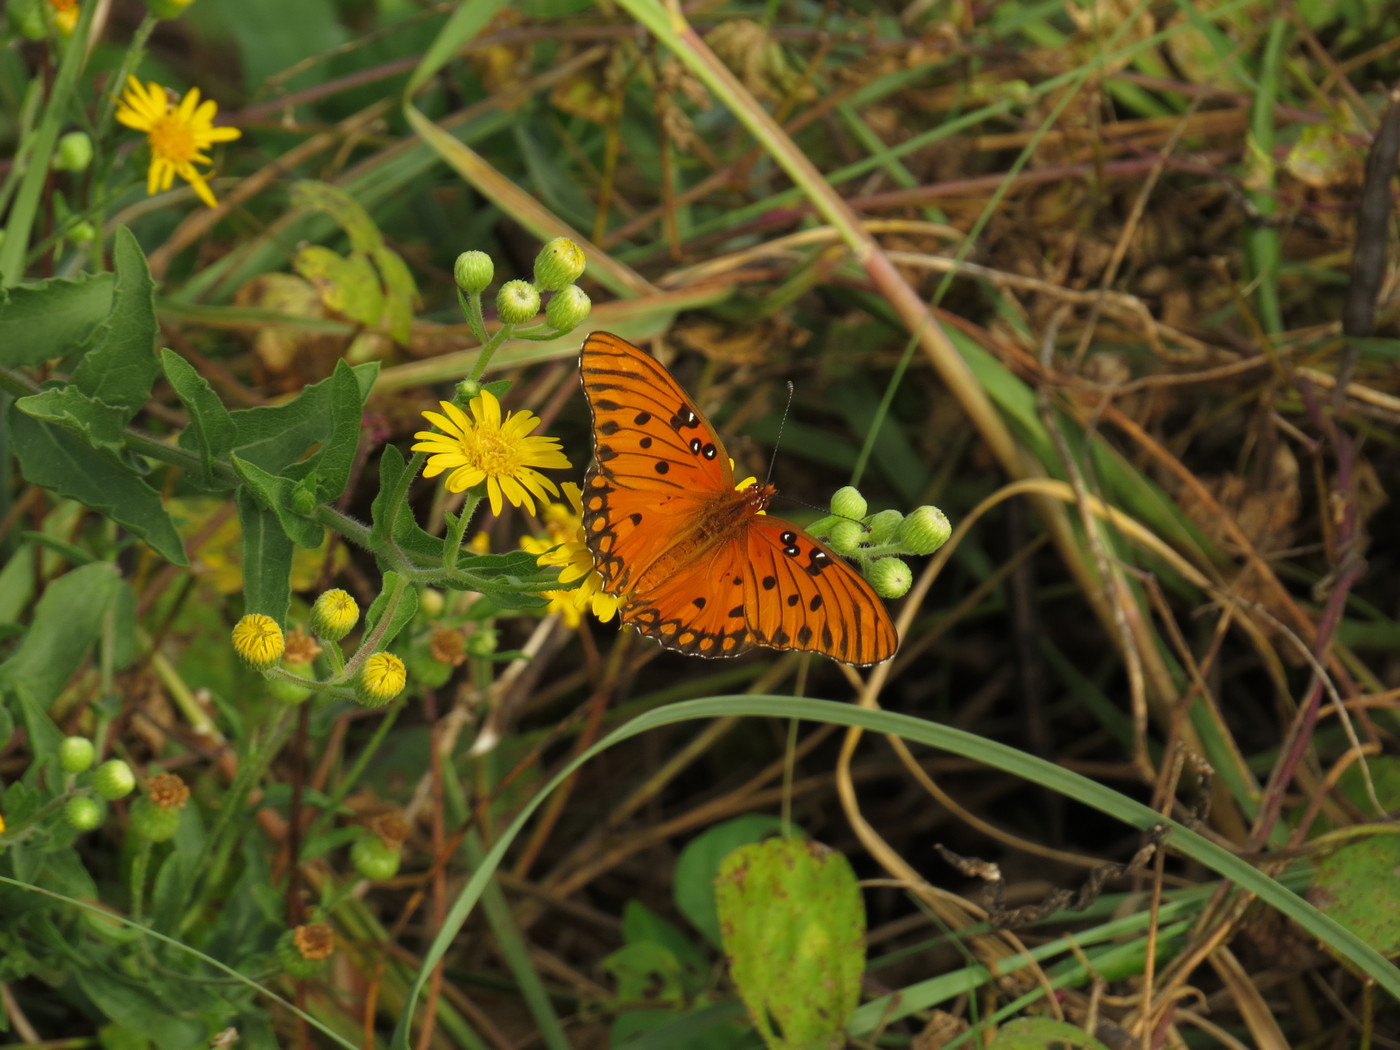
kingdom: Animalia
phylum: Arthropoda
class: Insecta
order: Lepidoptera
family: Nymphalidae
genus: Dione
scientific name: Dione vanillae
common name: Gulf fritillary
